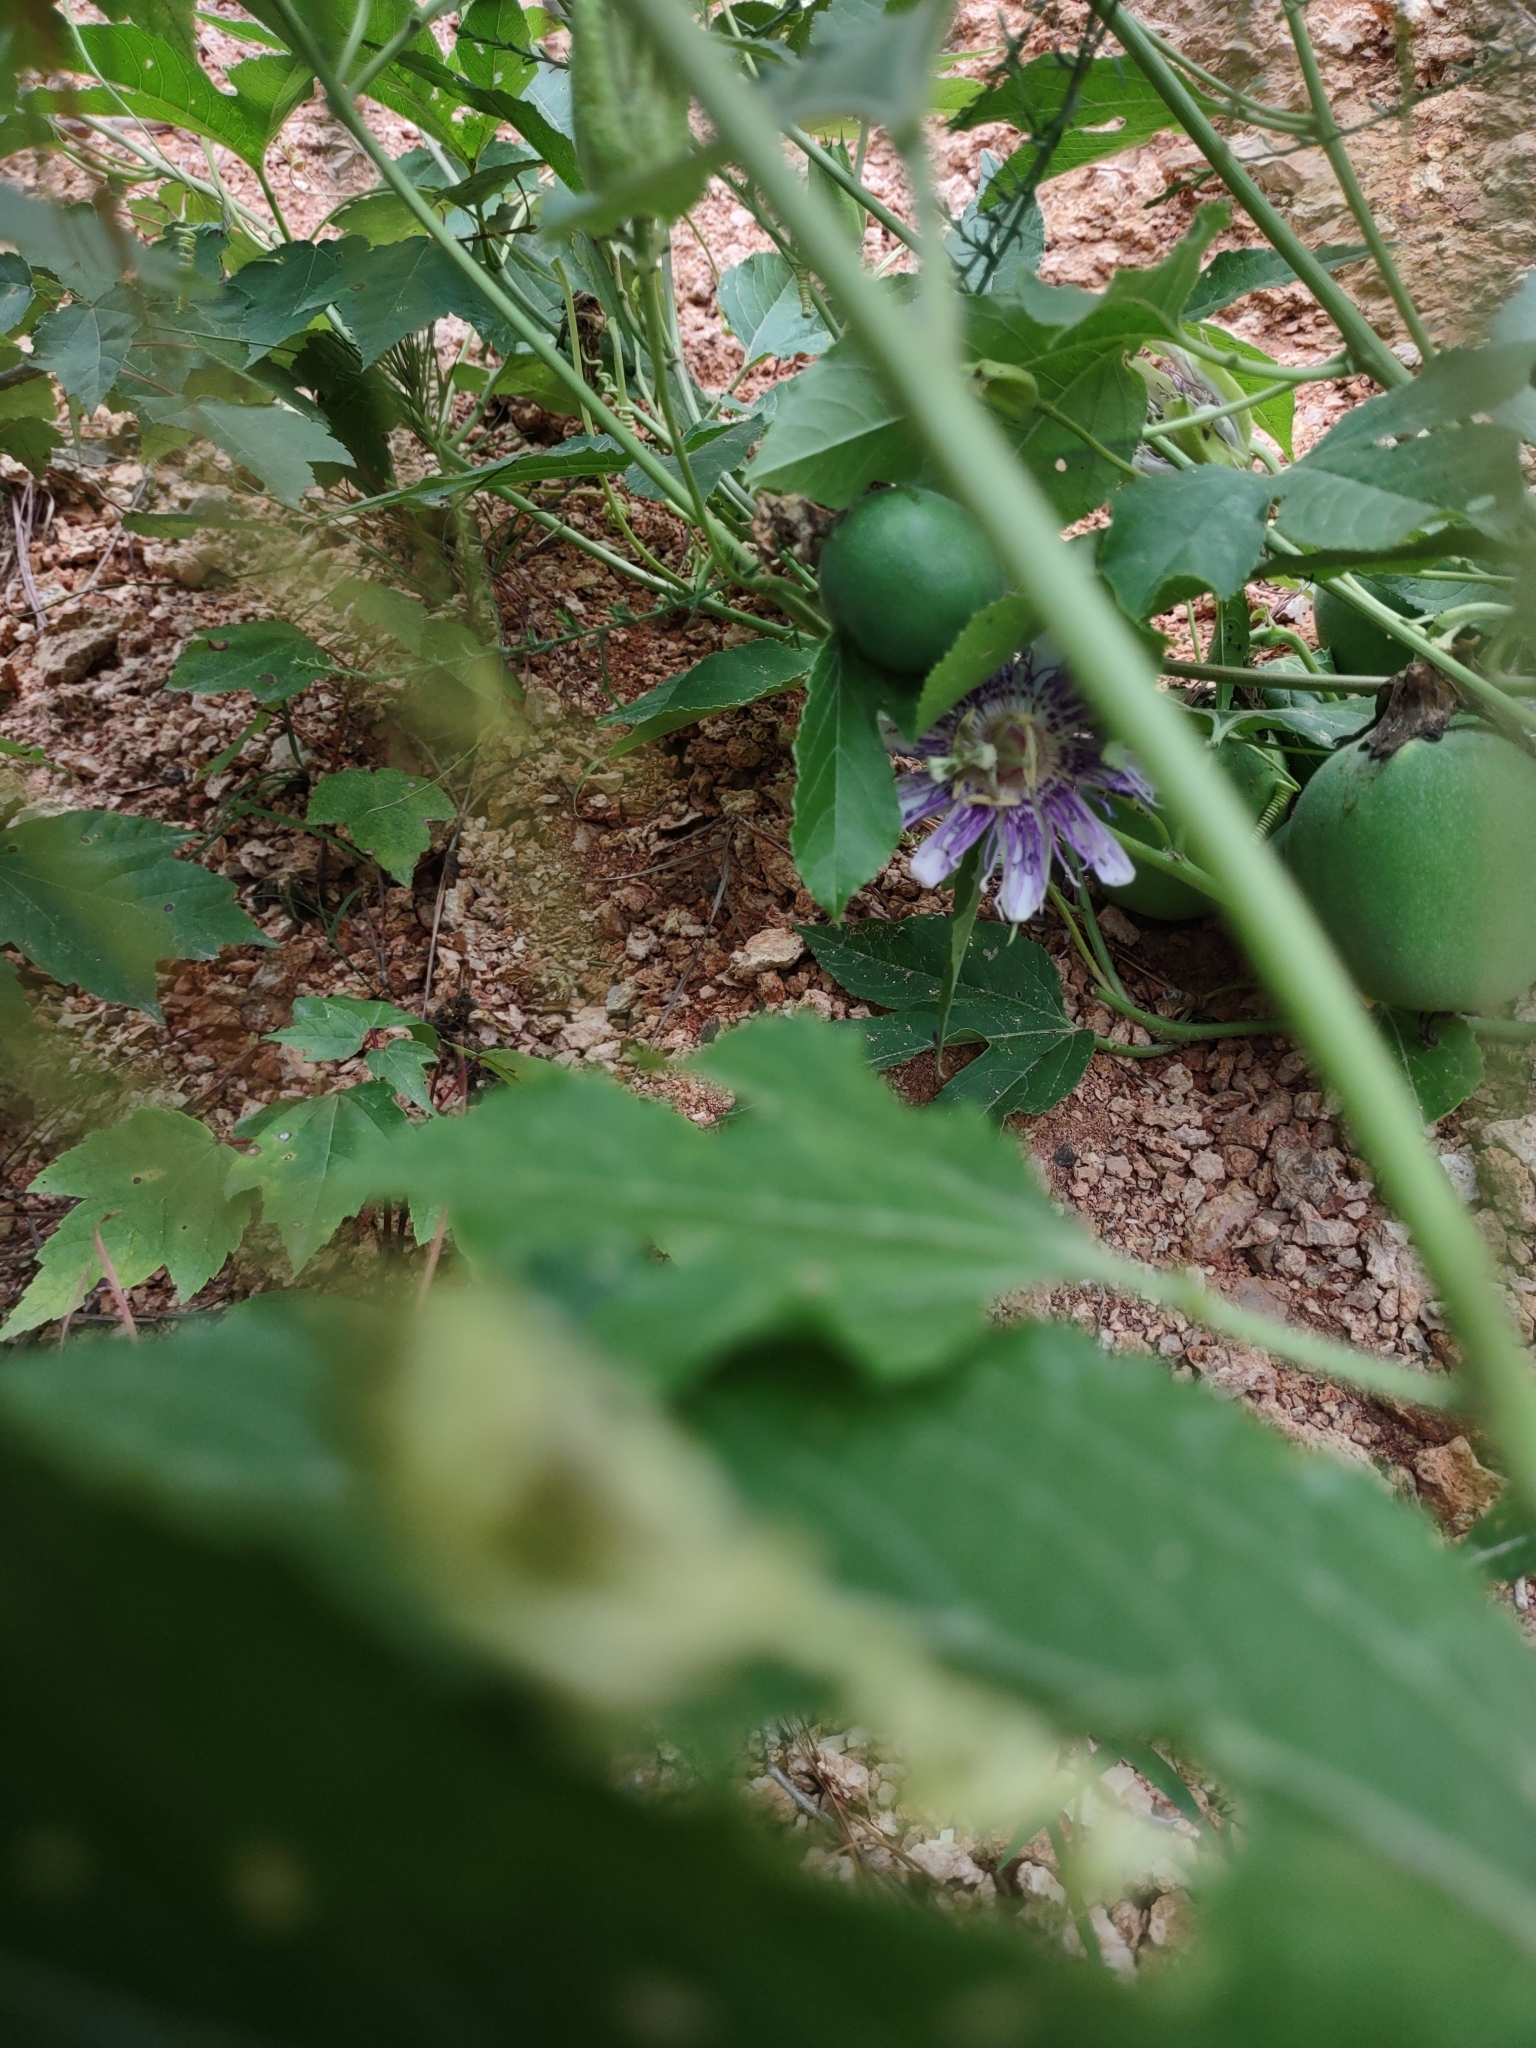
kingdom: Plantae
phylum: Tracheophyta
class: Magnoliopsida
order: Malpighiales
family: Passifloraceae
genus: Passiflora
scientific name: Passiflora incarnata
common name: Apricot-vine
